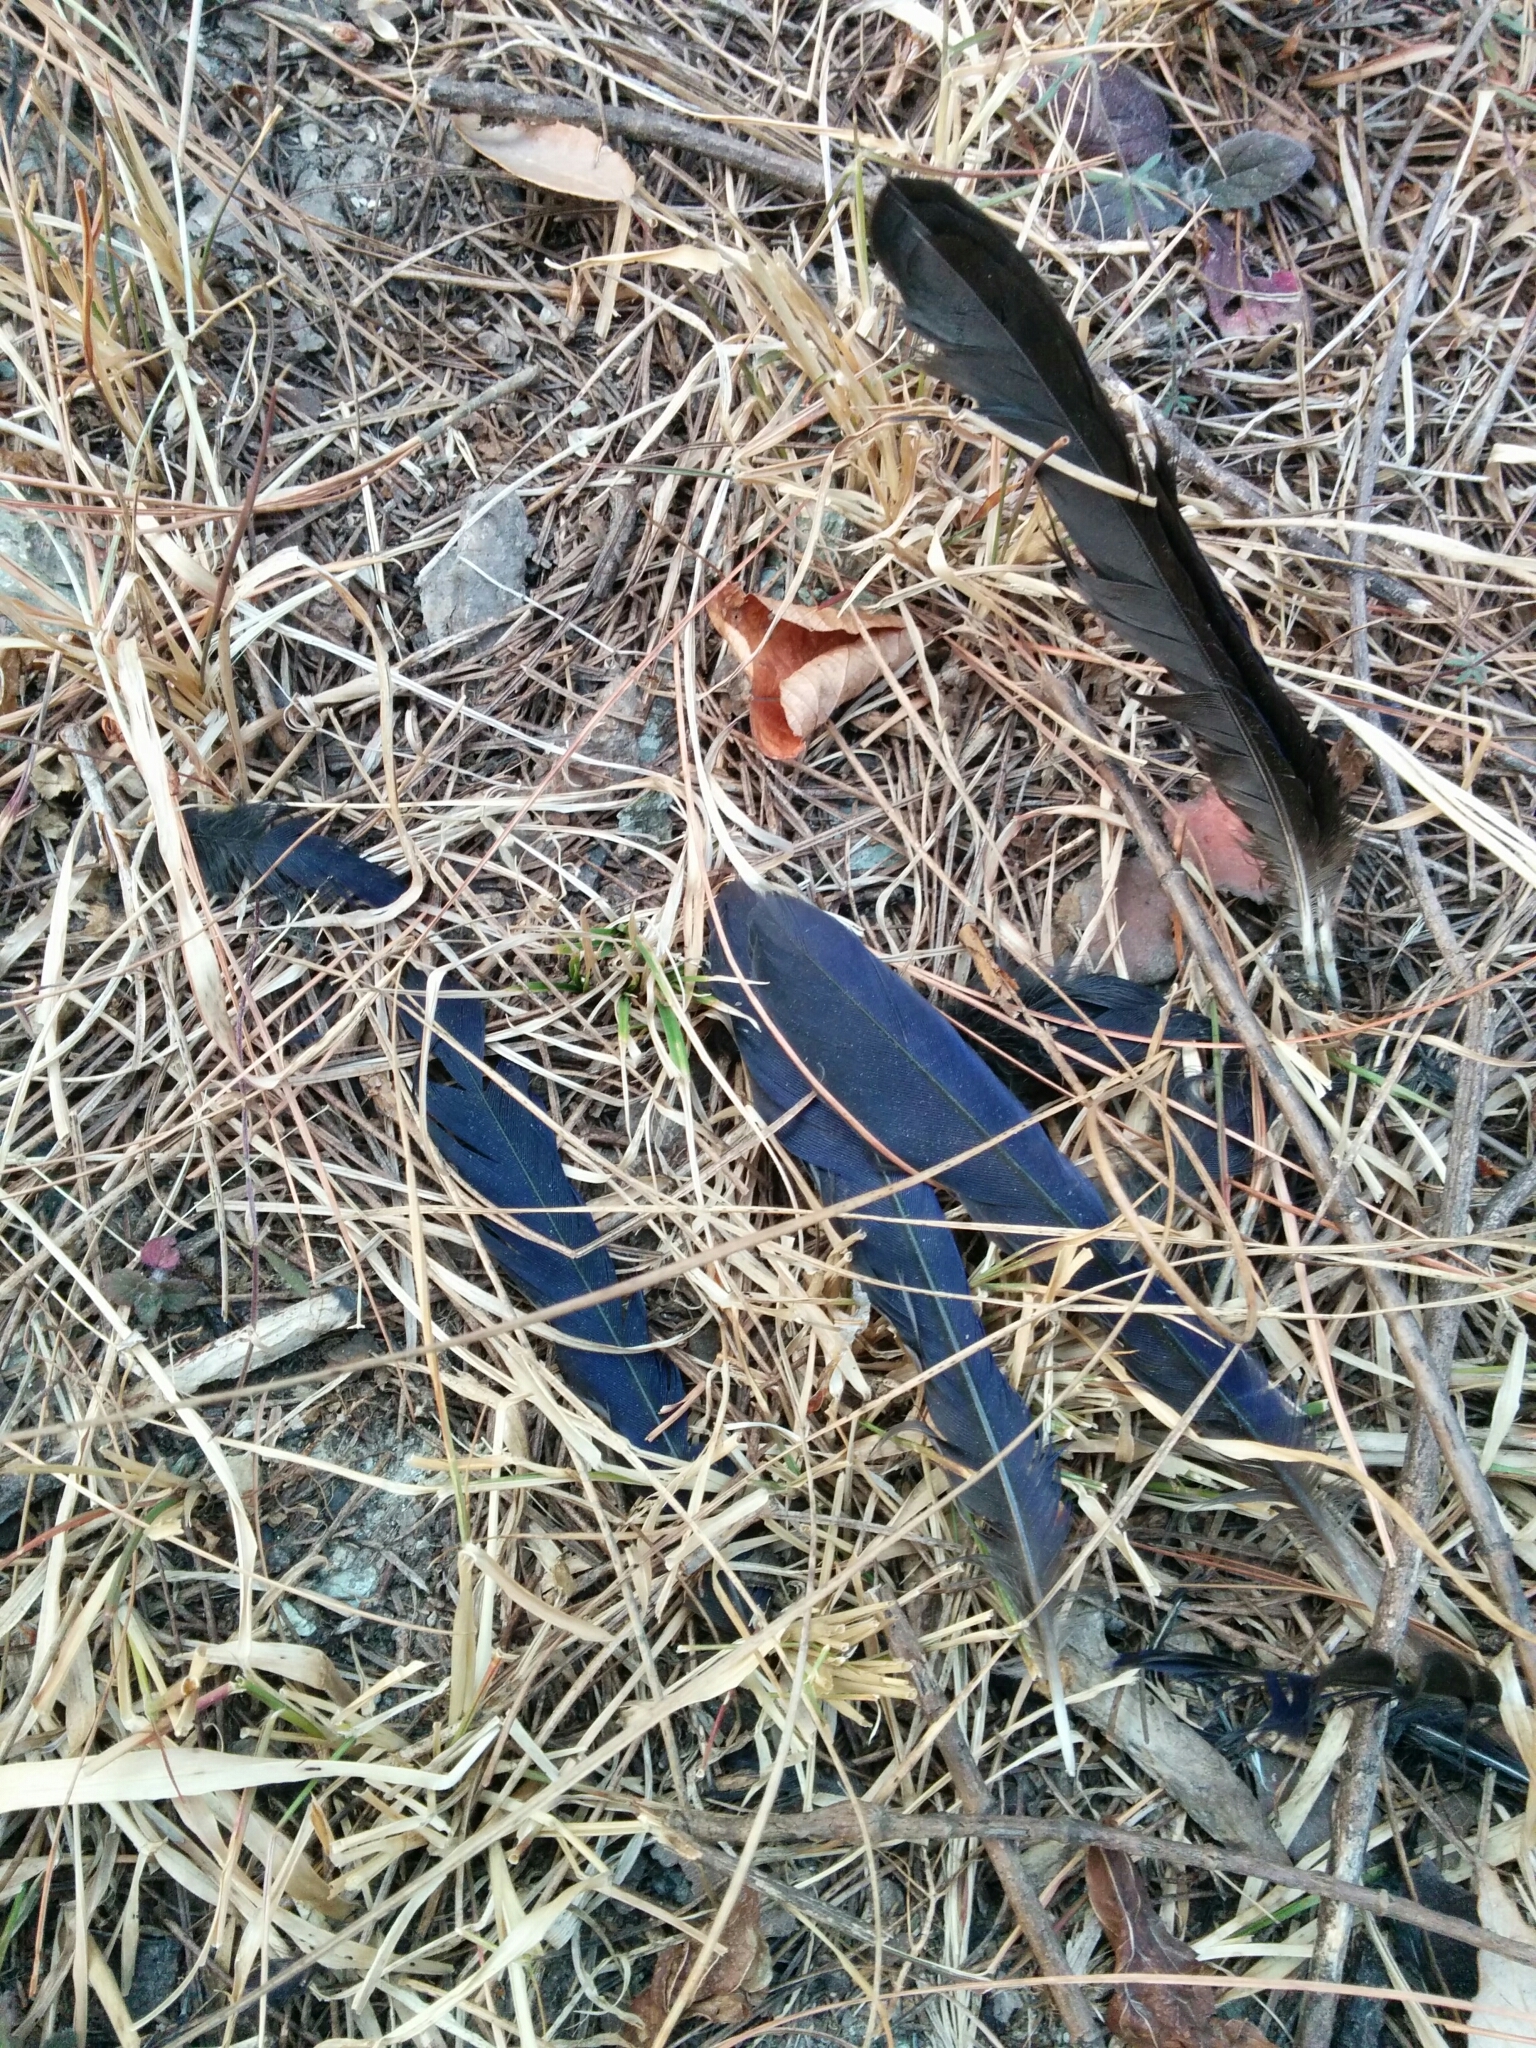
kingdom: Animalia
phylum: Chordata
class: Aves
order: Passeriformes
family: Muscicapidae
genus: Myophonus
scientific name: Myophonus caeruleus
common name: Blue whistling-thrush
